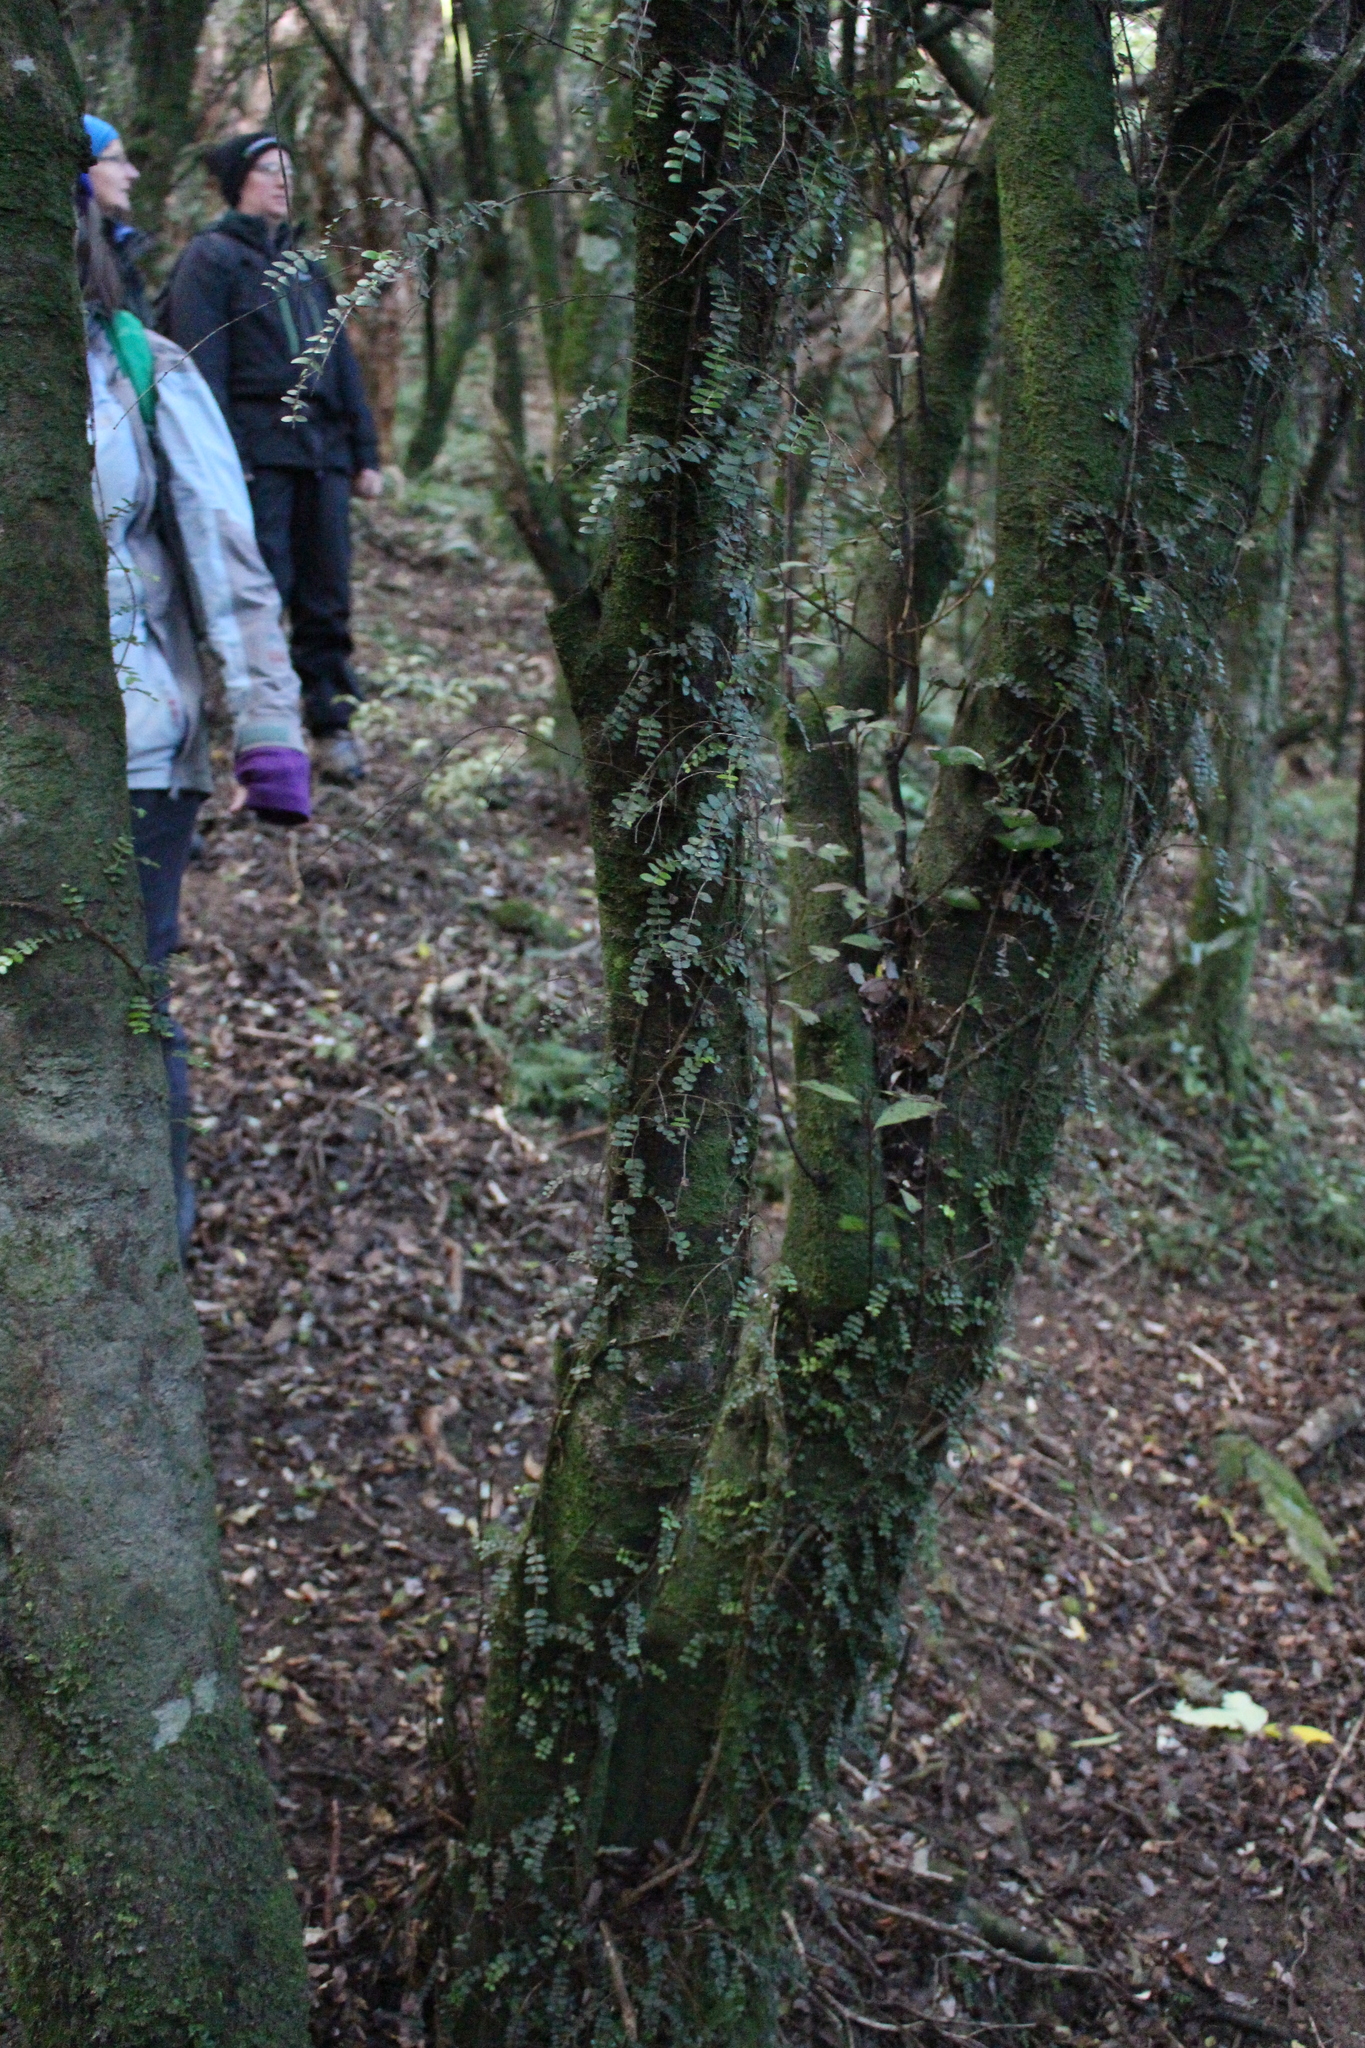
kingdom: Plantae
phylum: Tracheophyta
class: Magnoliopsida
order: Myrtales
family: Myrtaceae
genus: Metrosideros
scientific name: Metrosideros diffusa
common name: Small ratavine
